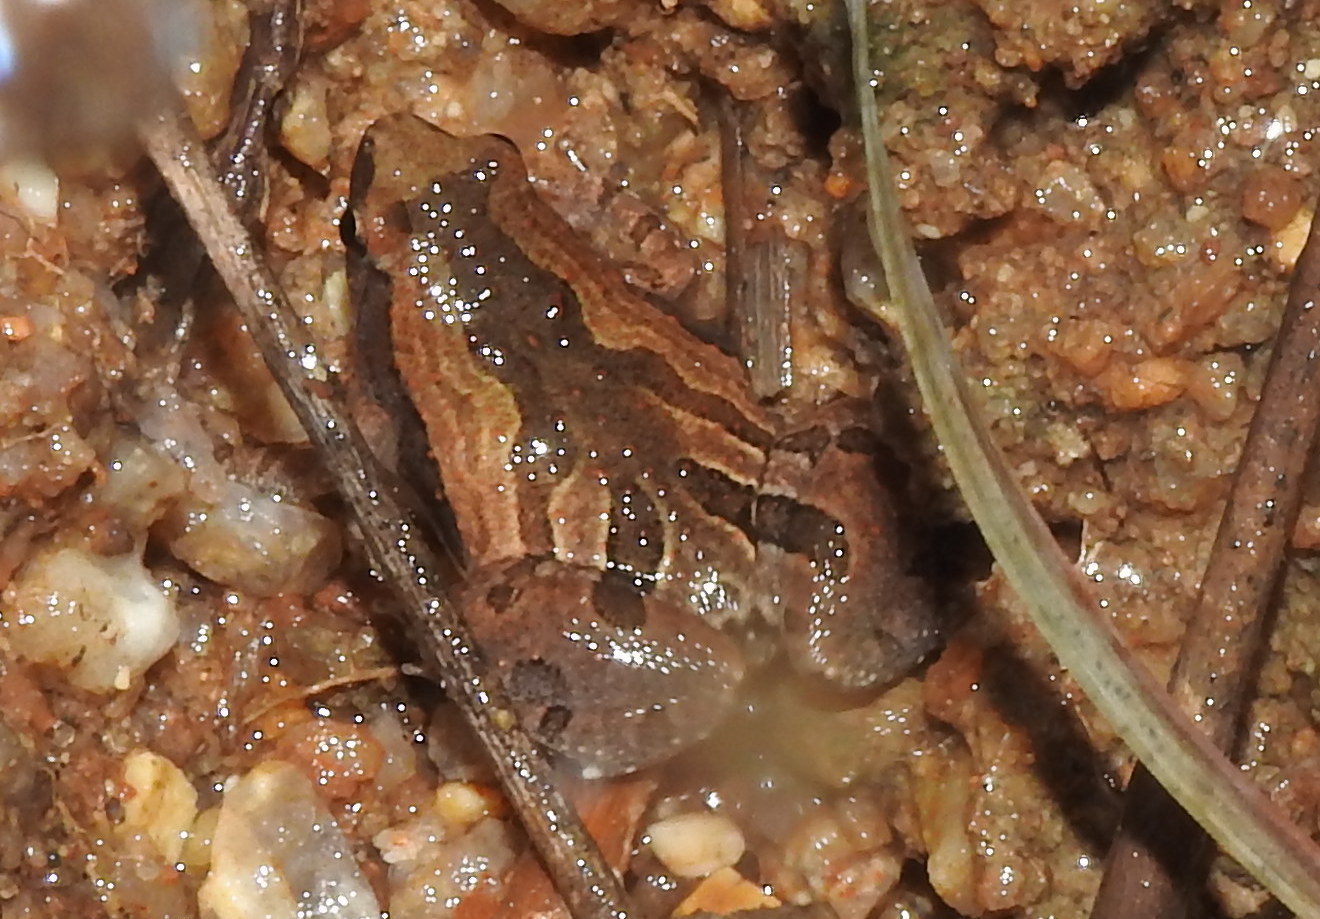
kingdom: Animalia
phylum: Chordata
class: Amphibia
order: Anura
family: Microhylidae
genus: Microhyla
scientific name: Microhyla ornata
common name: Ant frog
